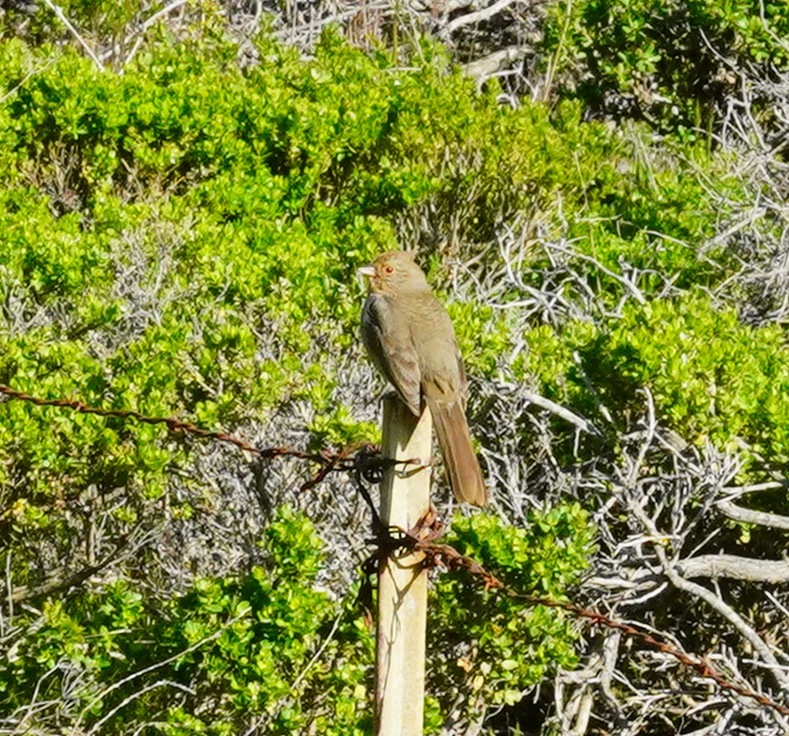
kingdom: Animalia
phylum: Chordata
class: Aves
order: Passeriformes
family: Passerellidae
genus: Melozone
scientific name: Melozone crissalis
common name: California towhee
